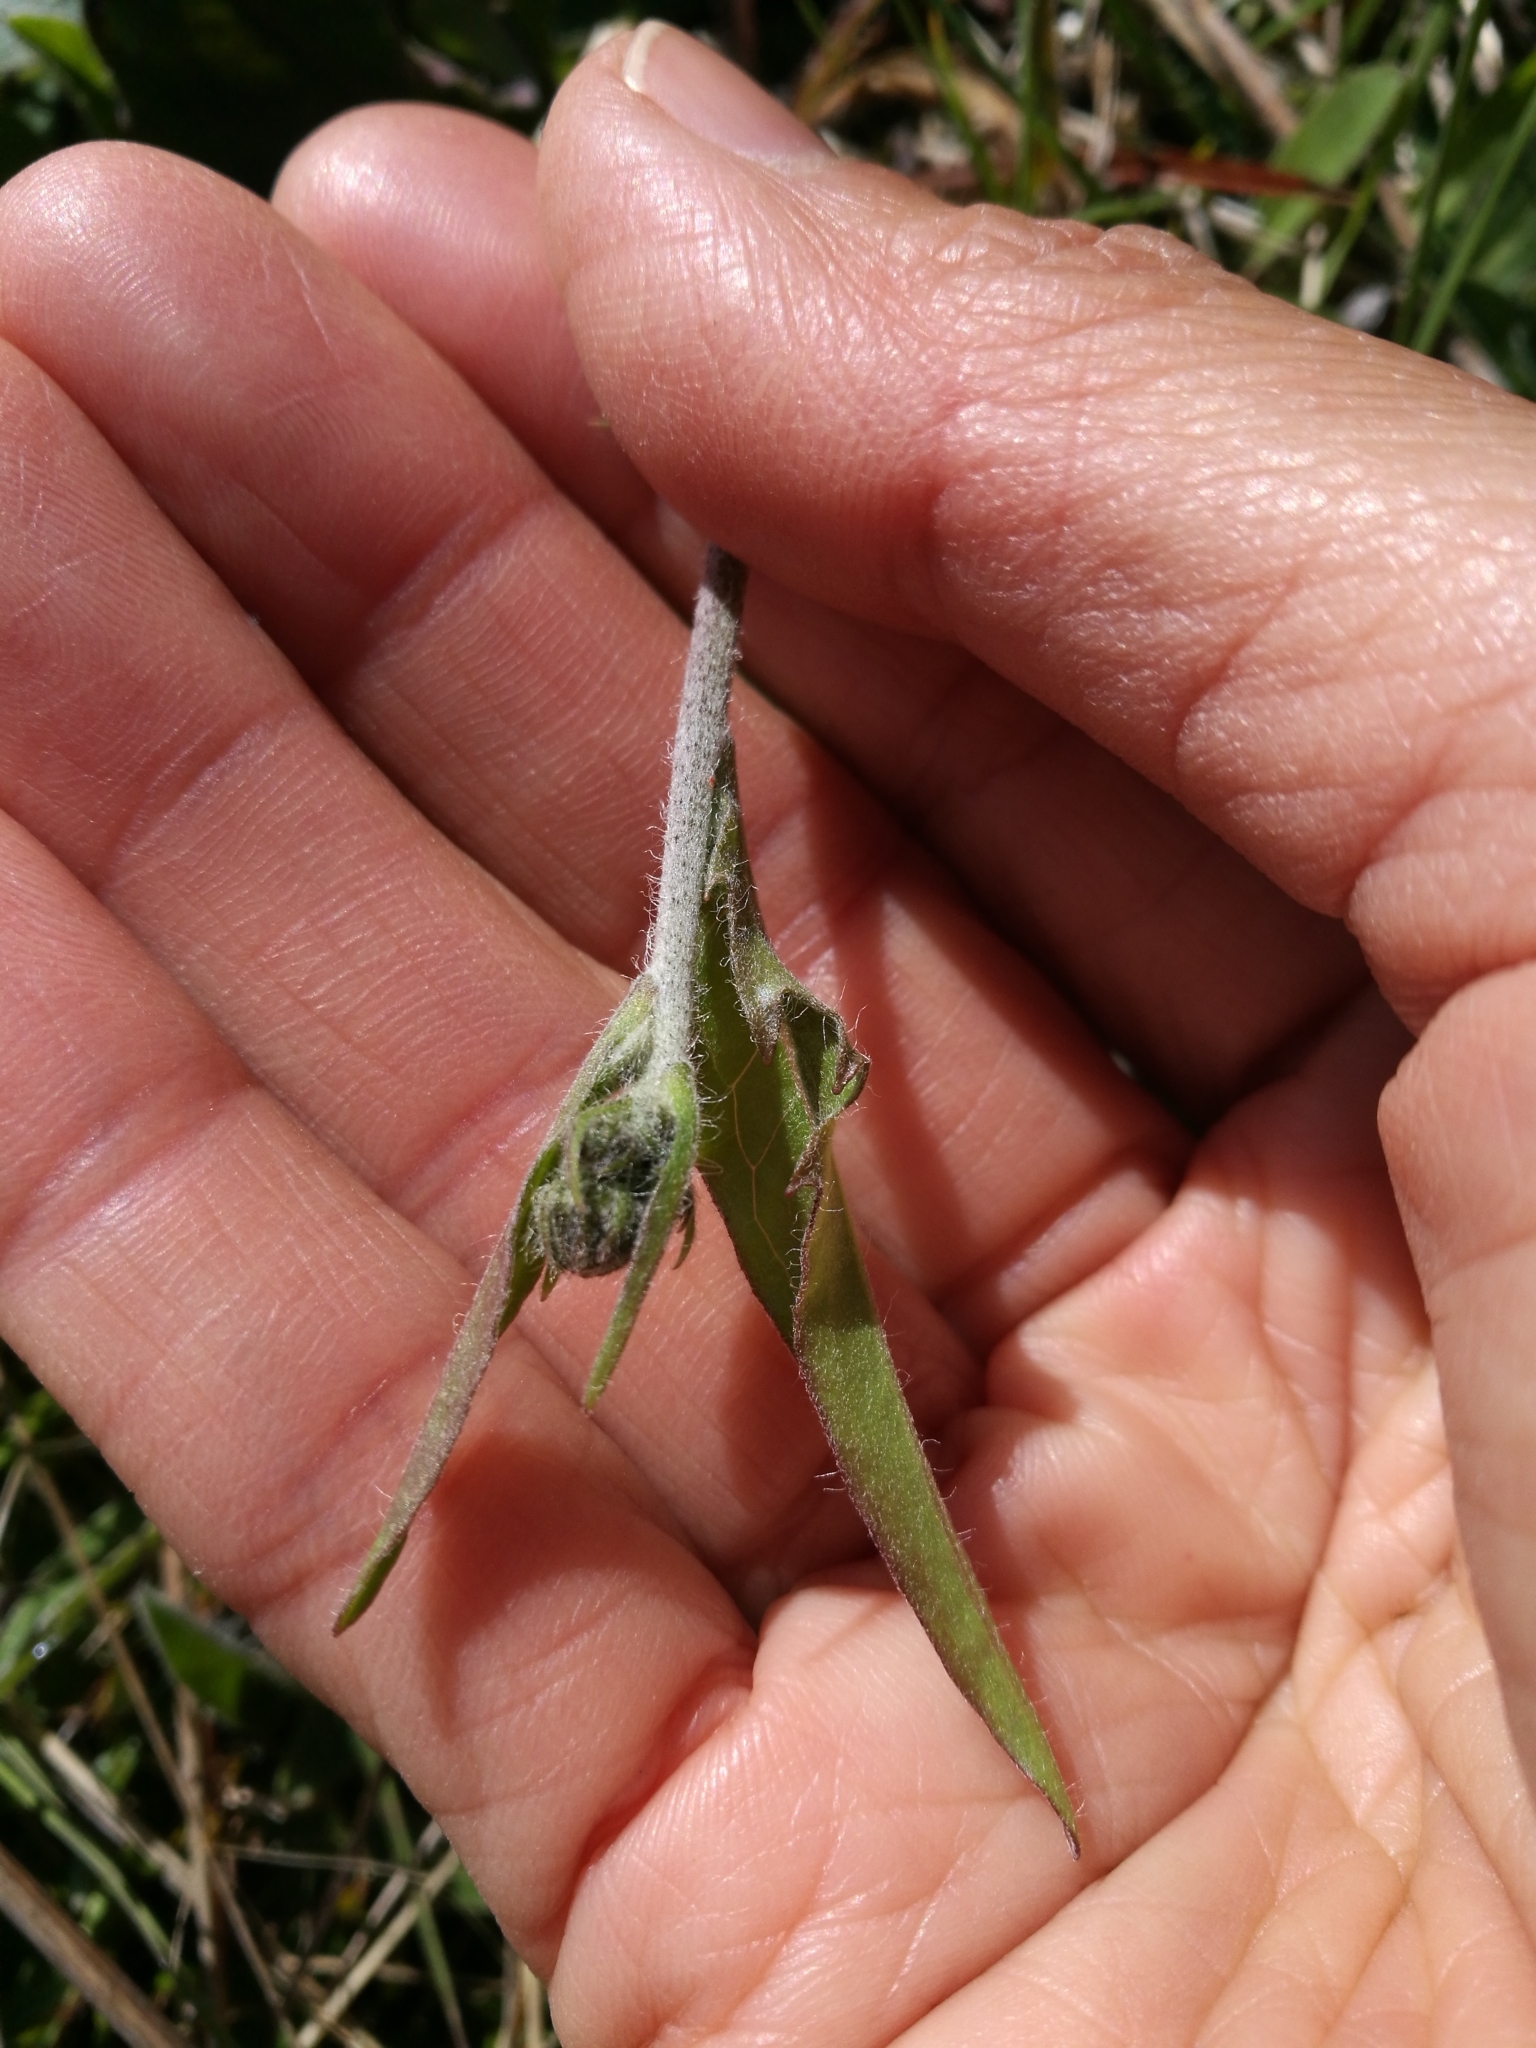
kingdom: Plantae
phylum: Tracheophyta
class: Magnoliopsida
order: Asterales
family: Asteraceae
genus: Hieracium
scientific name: Hieracium lepidulum
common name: Irregular-toothed hawkweed
